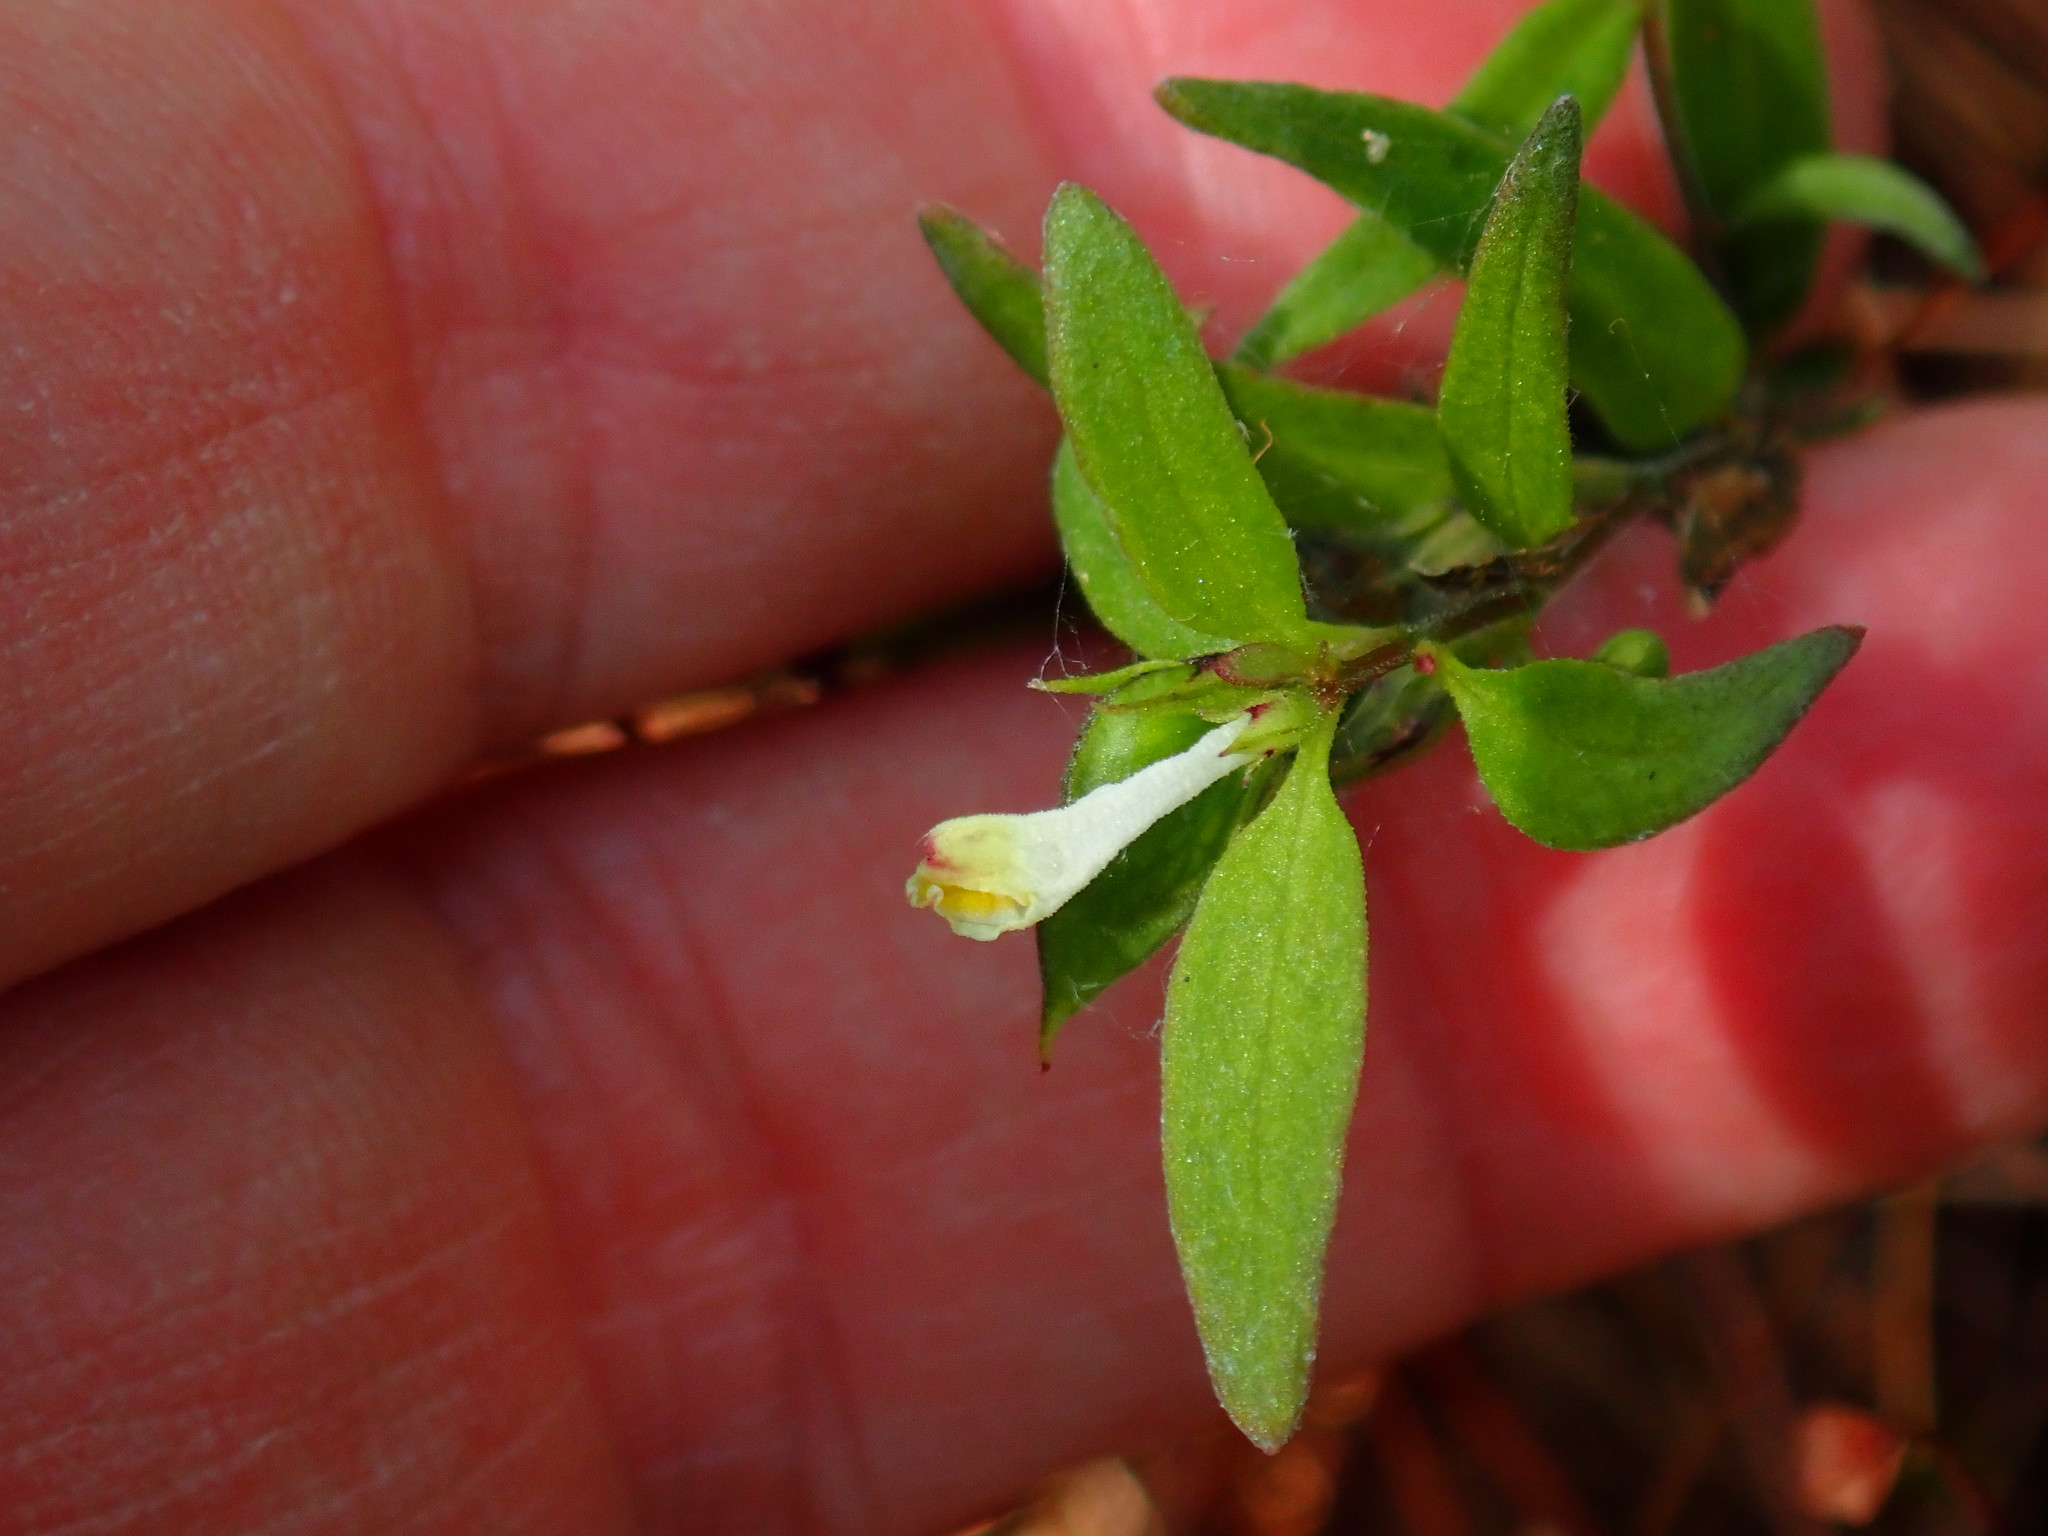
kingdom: Plantae
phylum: Tracheophyta
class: Magnoliopsida
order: Lamiales
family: Orobanchaceae
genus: Melampyrum
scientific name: Melampyrum lineare
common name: American cow-wheat
